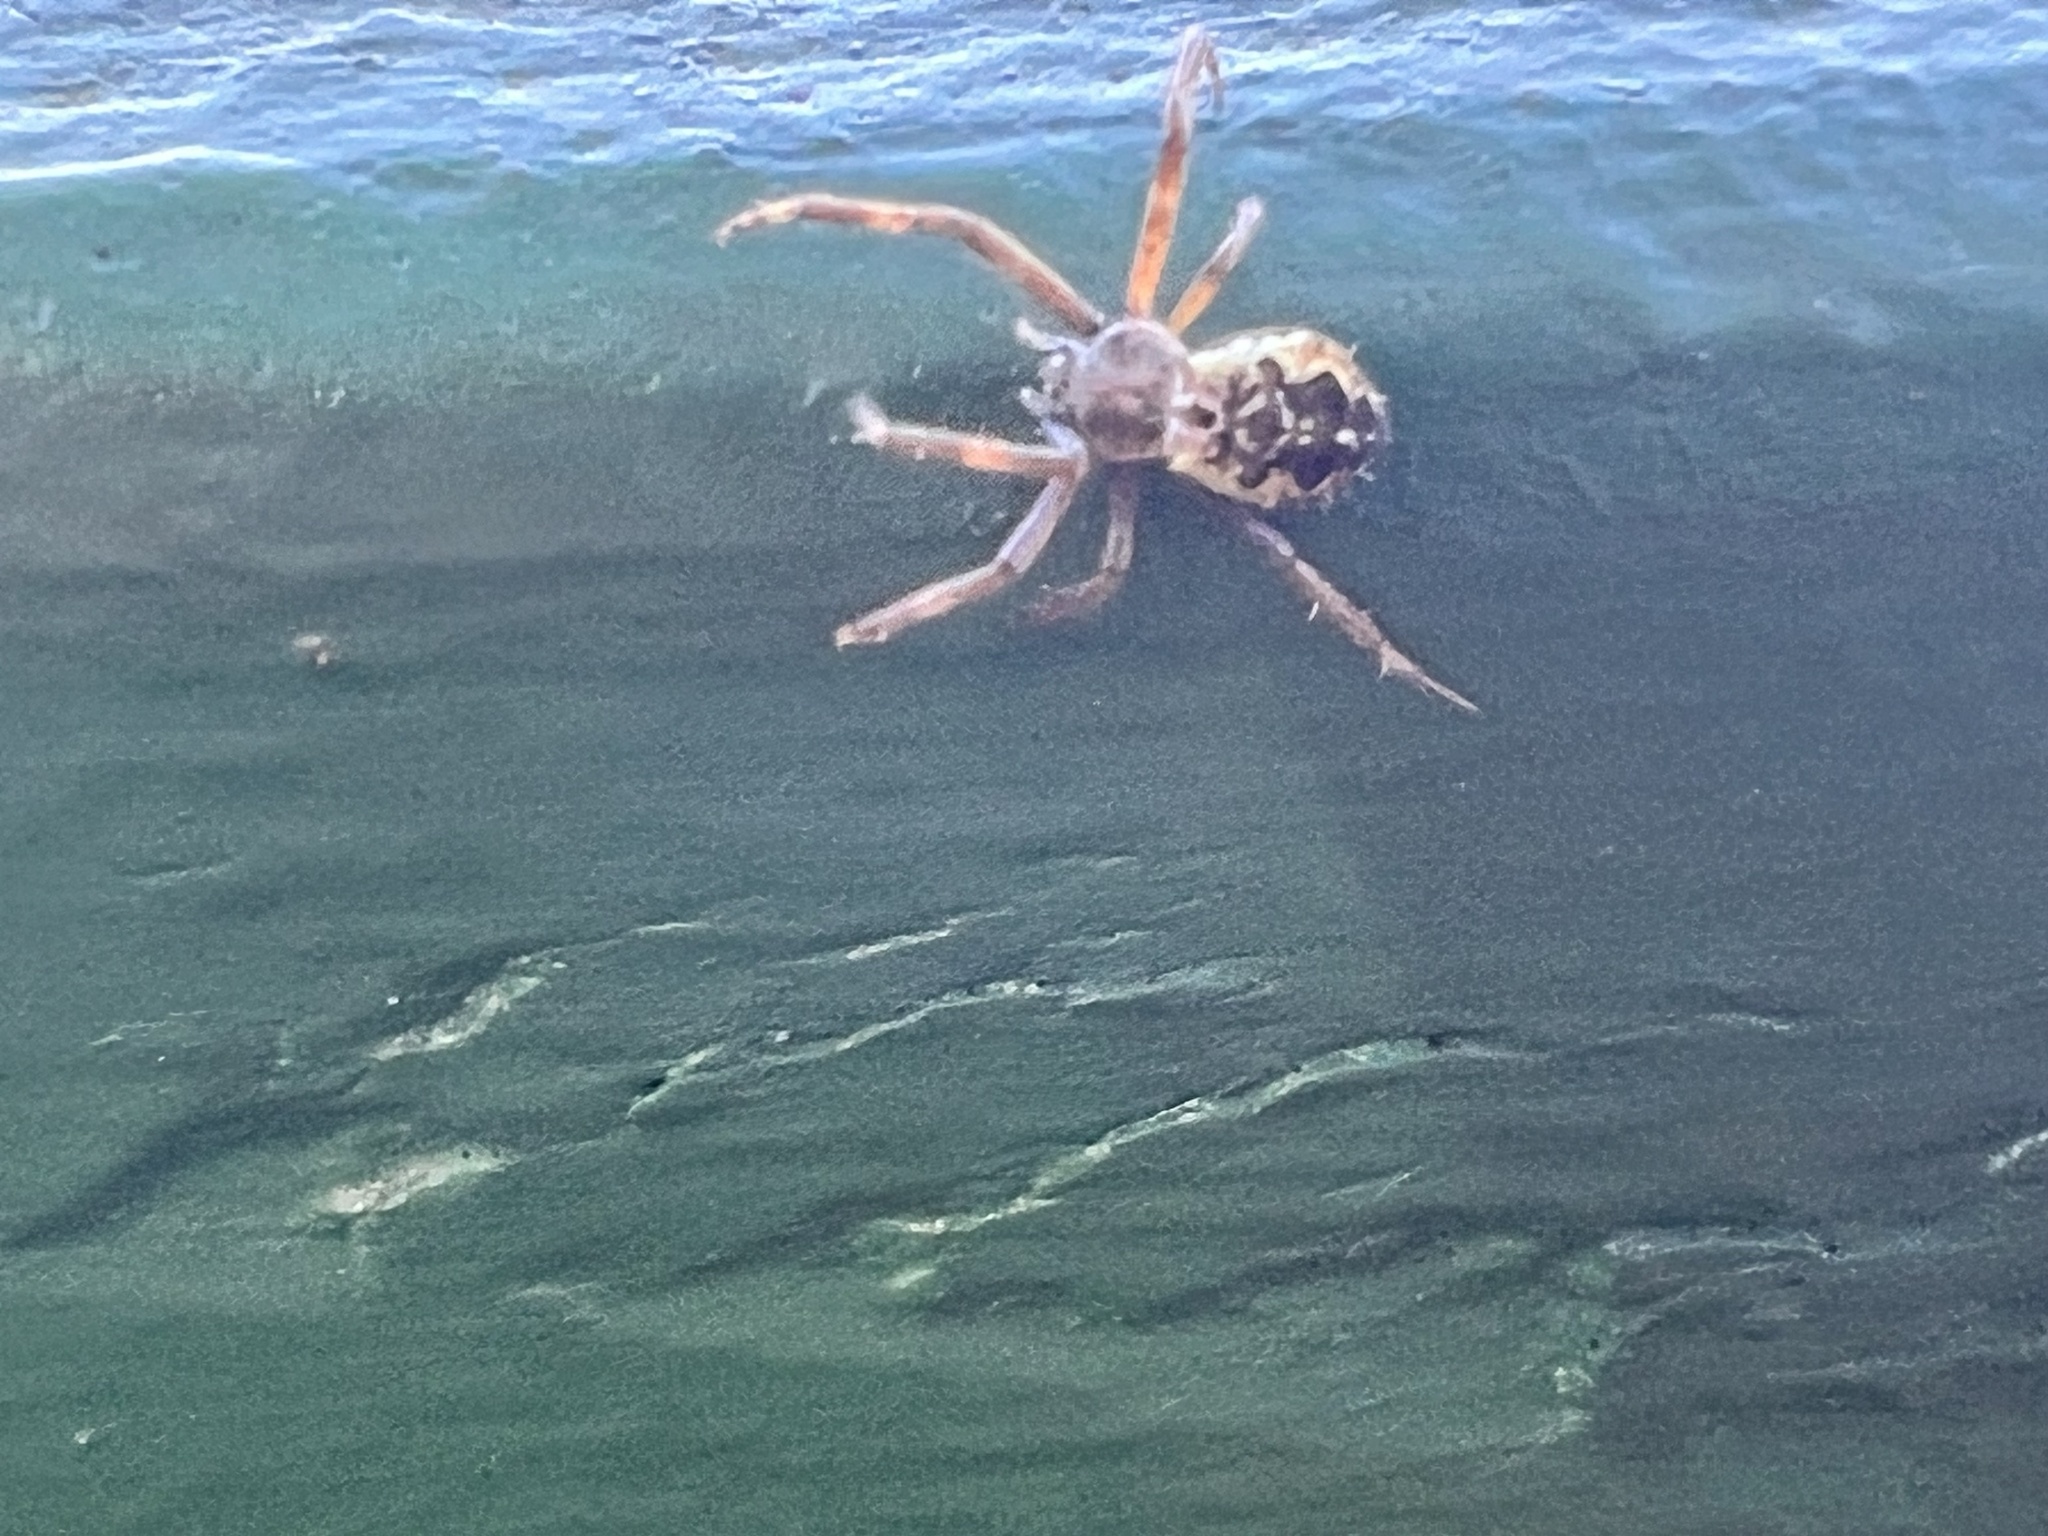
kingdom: Animalia
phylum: Arthropoda
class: Arachnida
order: Araneae
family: Araneidae
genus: Argiope
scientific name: Argiope appensa
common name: Garden spider
